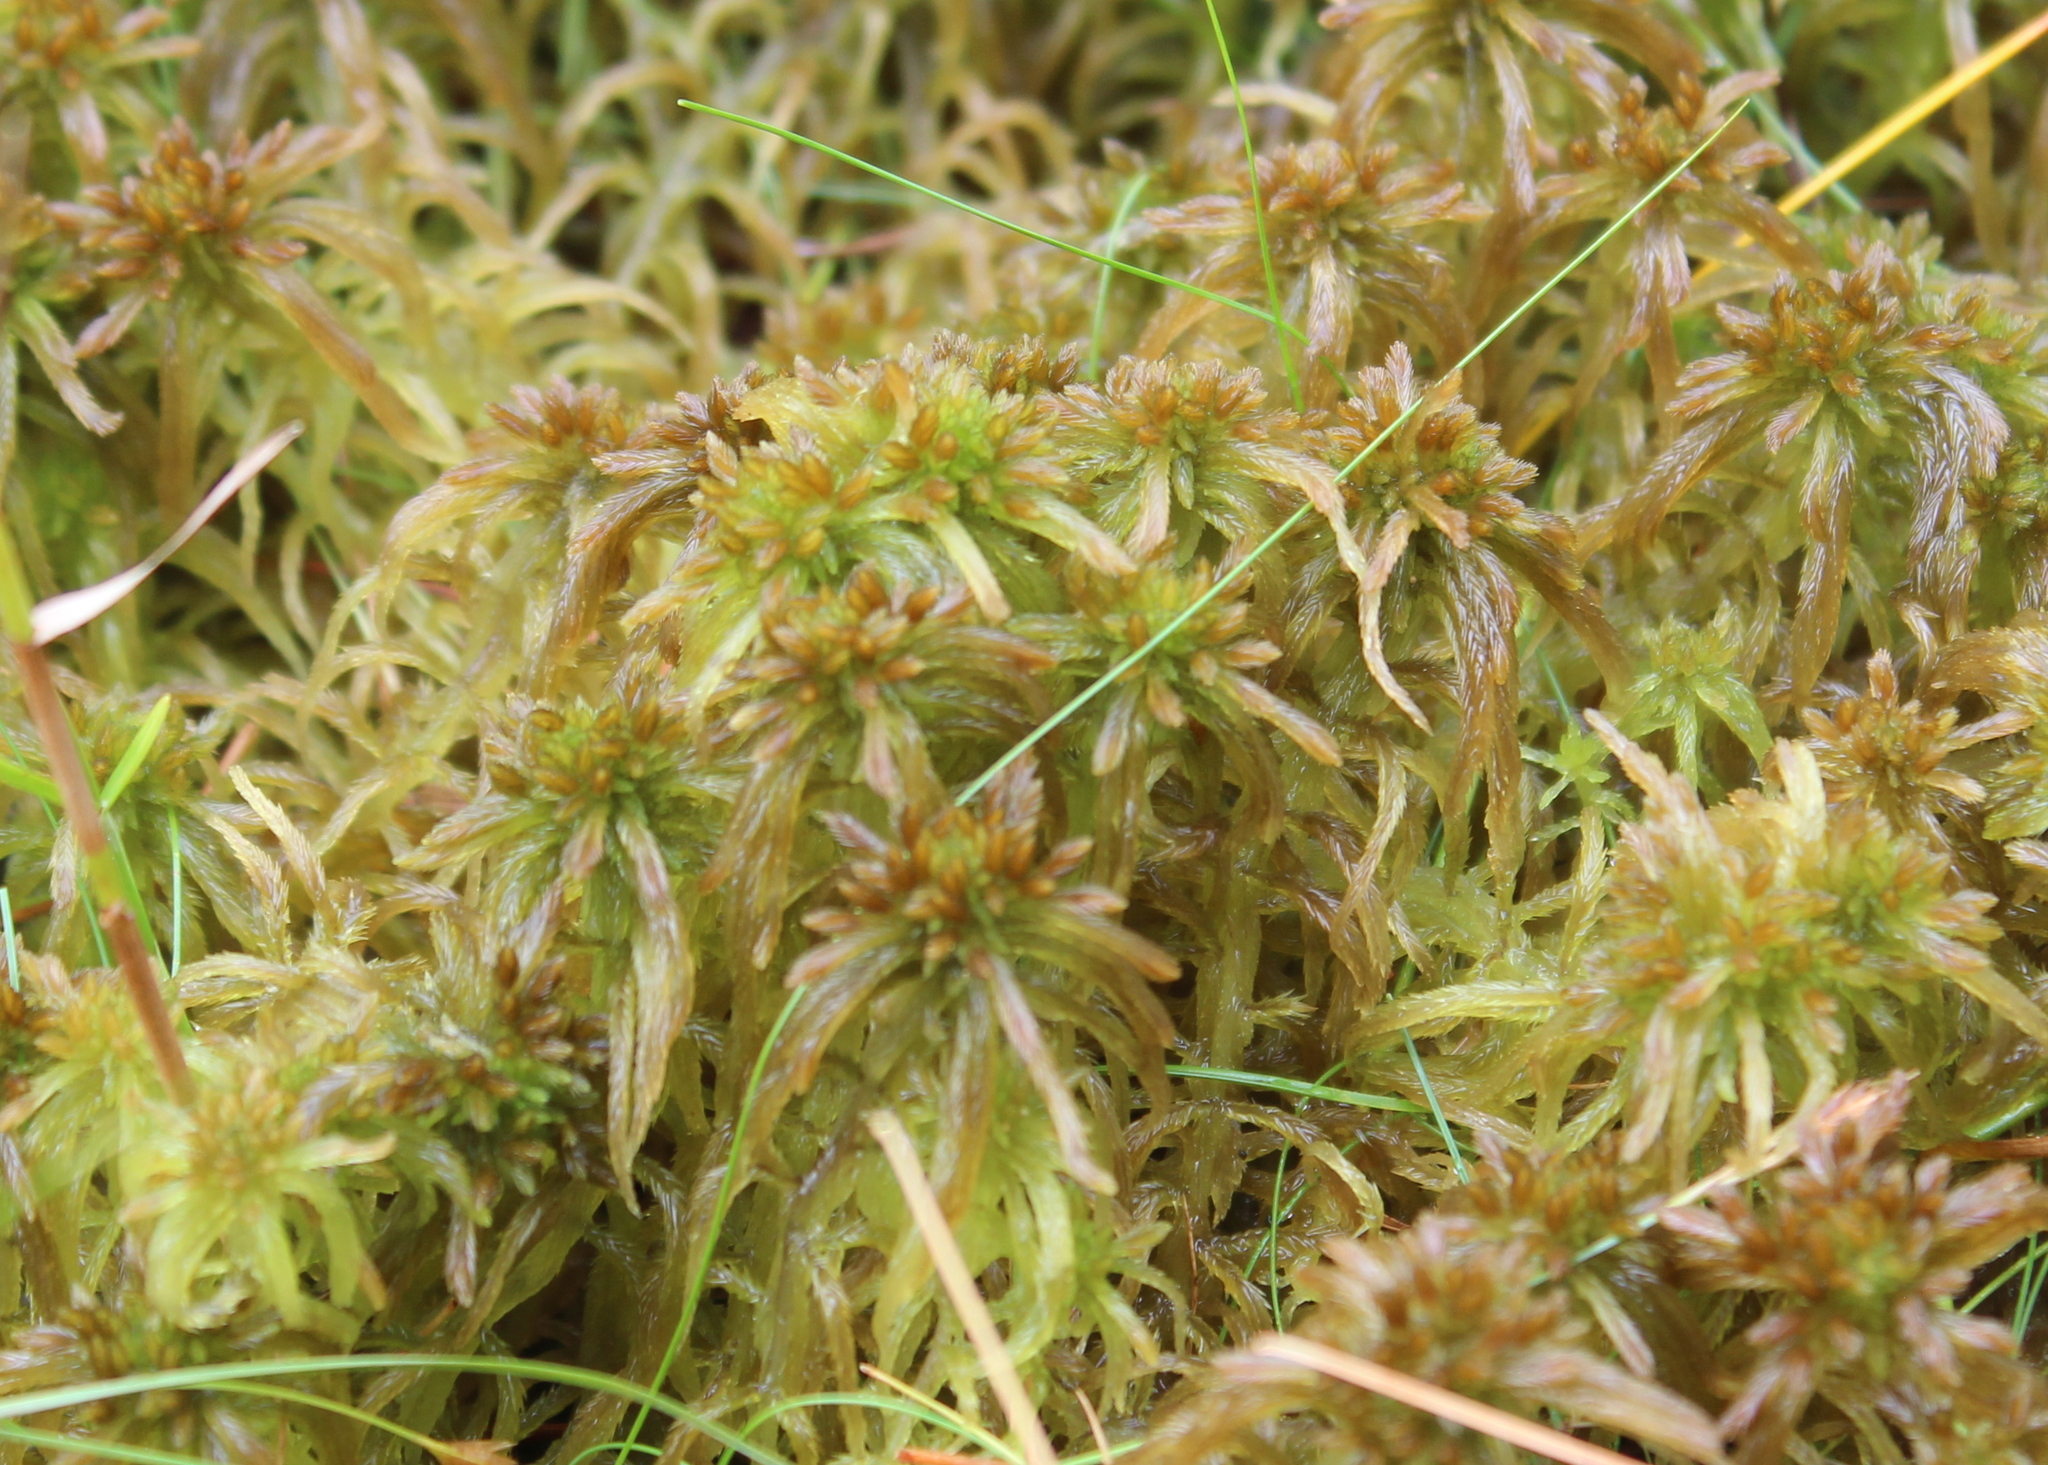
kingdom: Plantae
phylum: Bryophyta
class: Sphagnopsida
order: Sphagnales
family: Sphagnaceae
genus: Sphagnum
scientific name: Sphagnum fallax
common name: Flat-top peat moss
